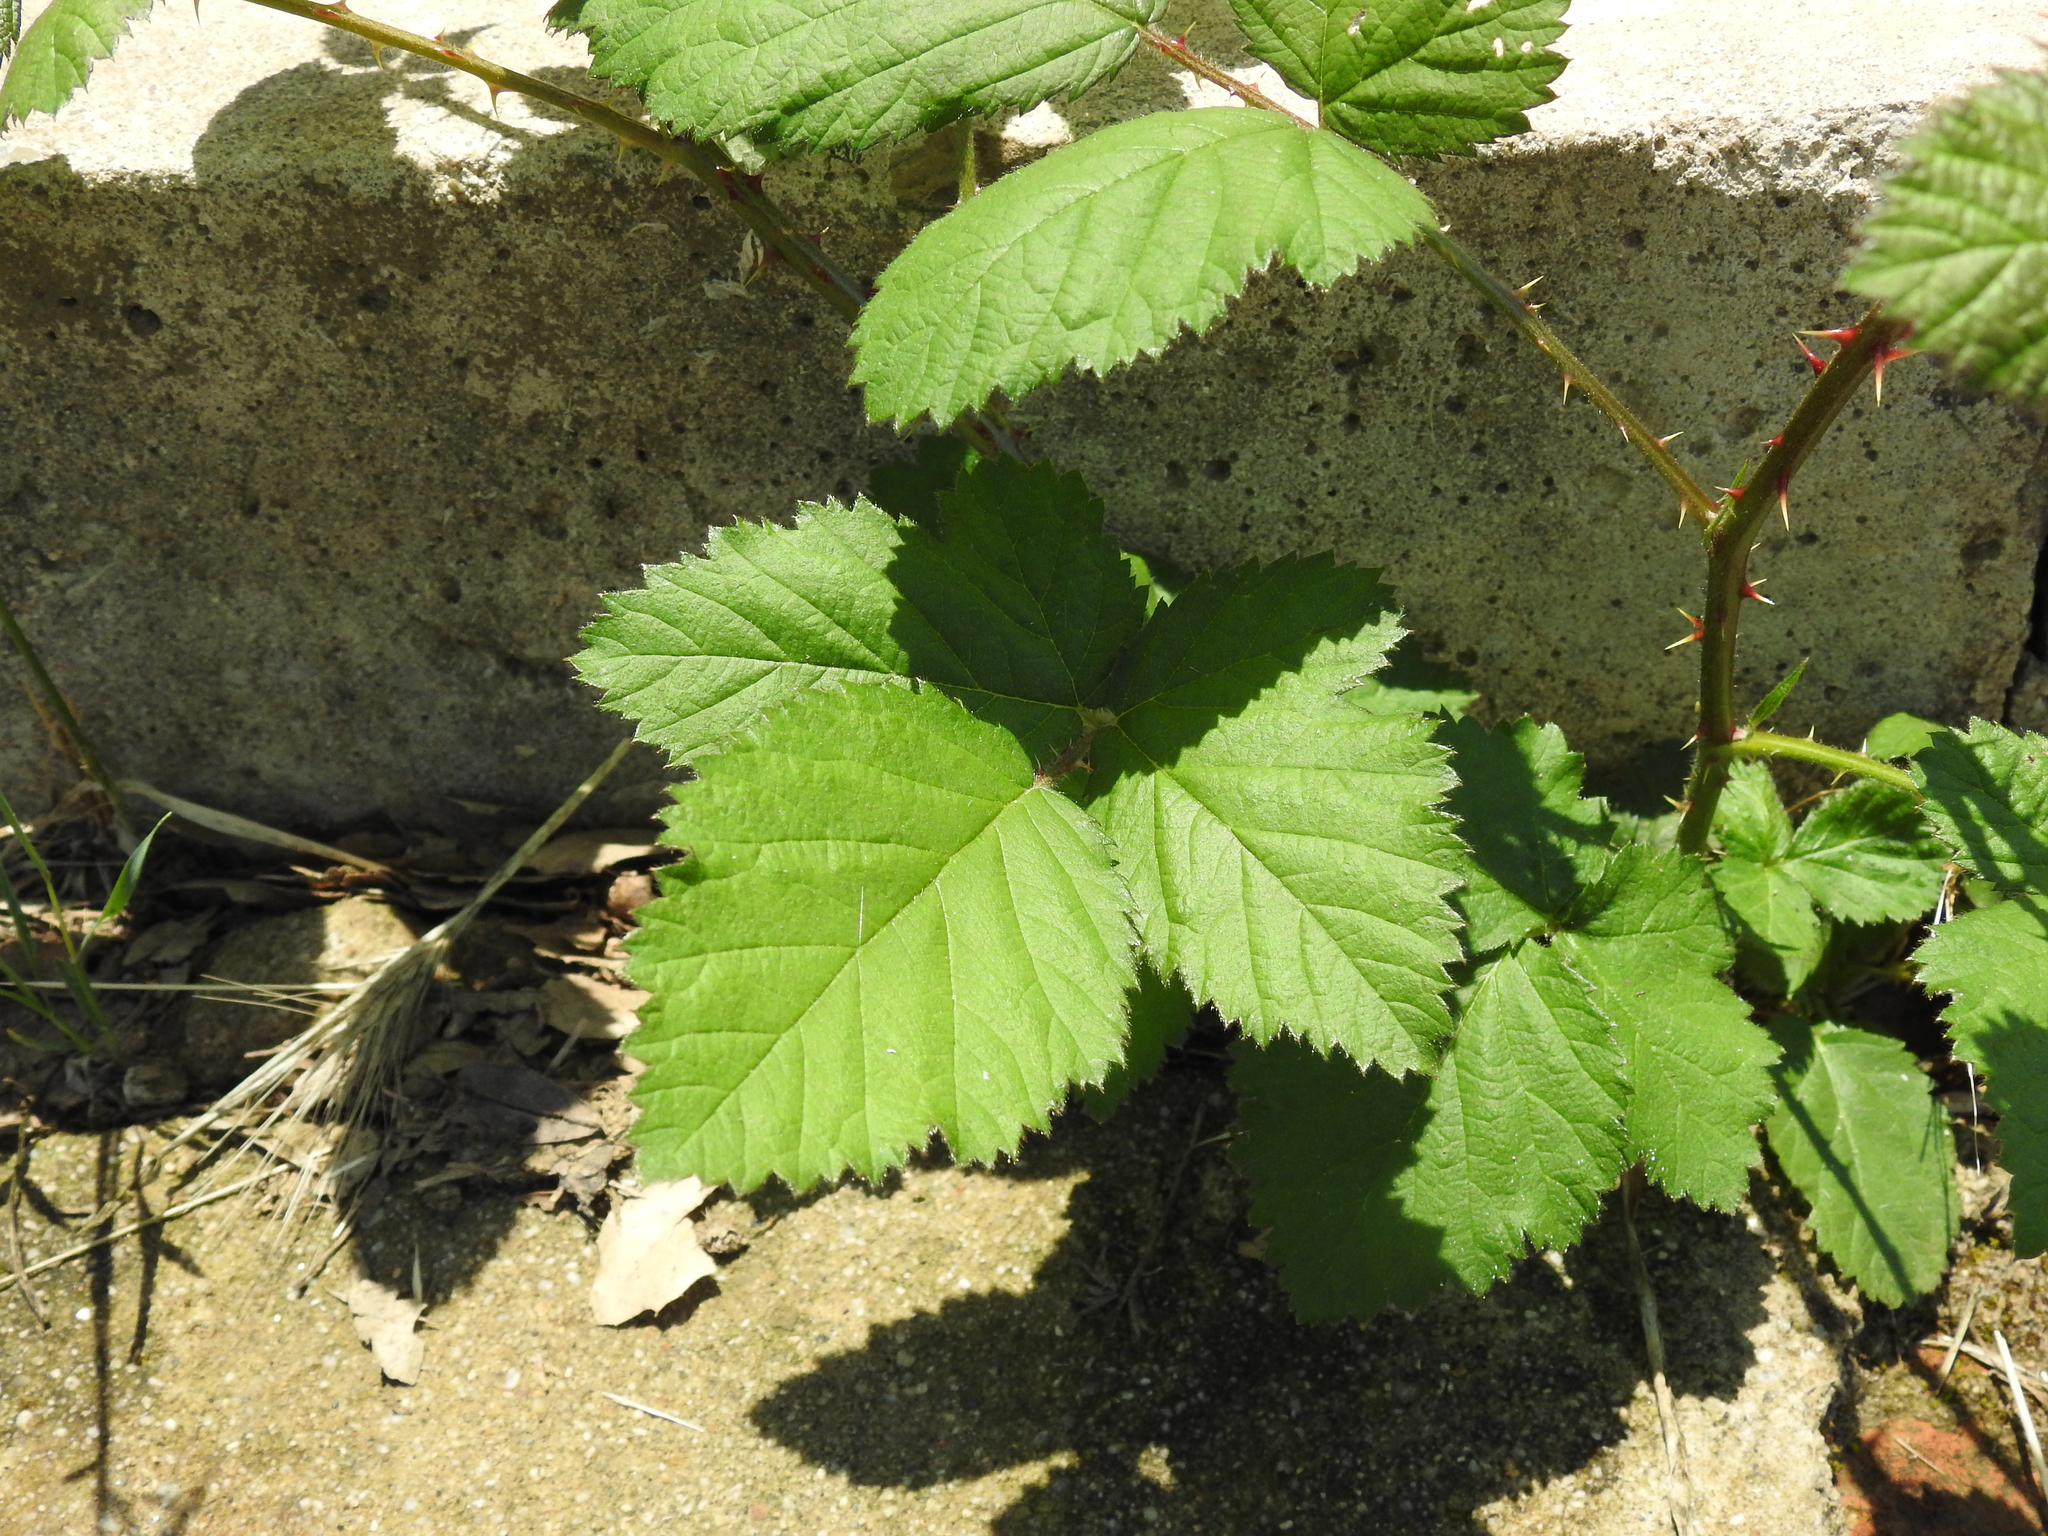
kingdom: Plantae
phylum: Tracheophyta
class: Magnoliopsida
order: Rosales
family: Rosaceae
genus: Rubus
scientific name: Rubus armeniacus
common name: Himalayan blackberry
